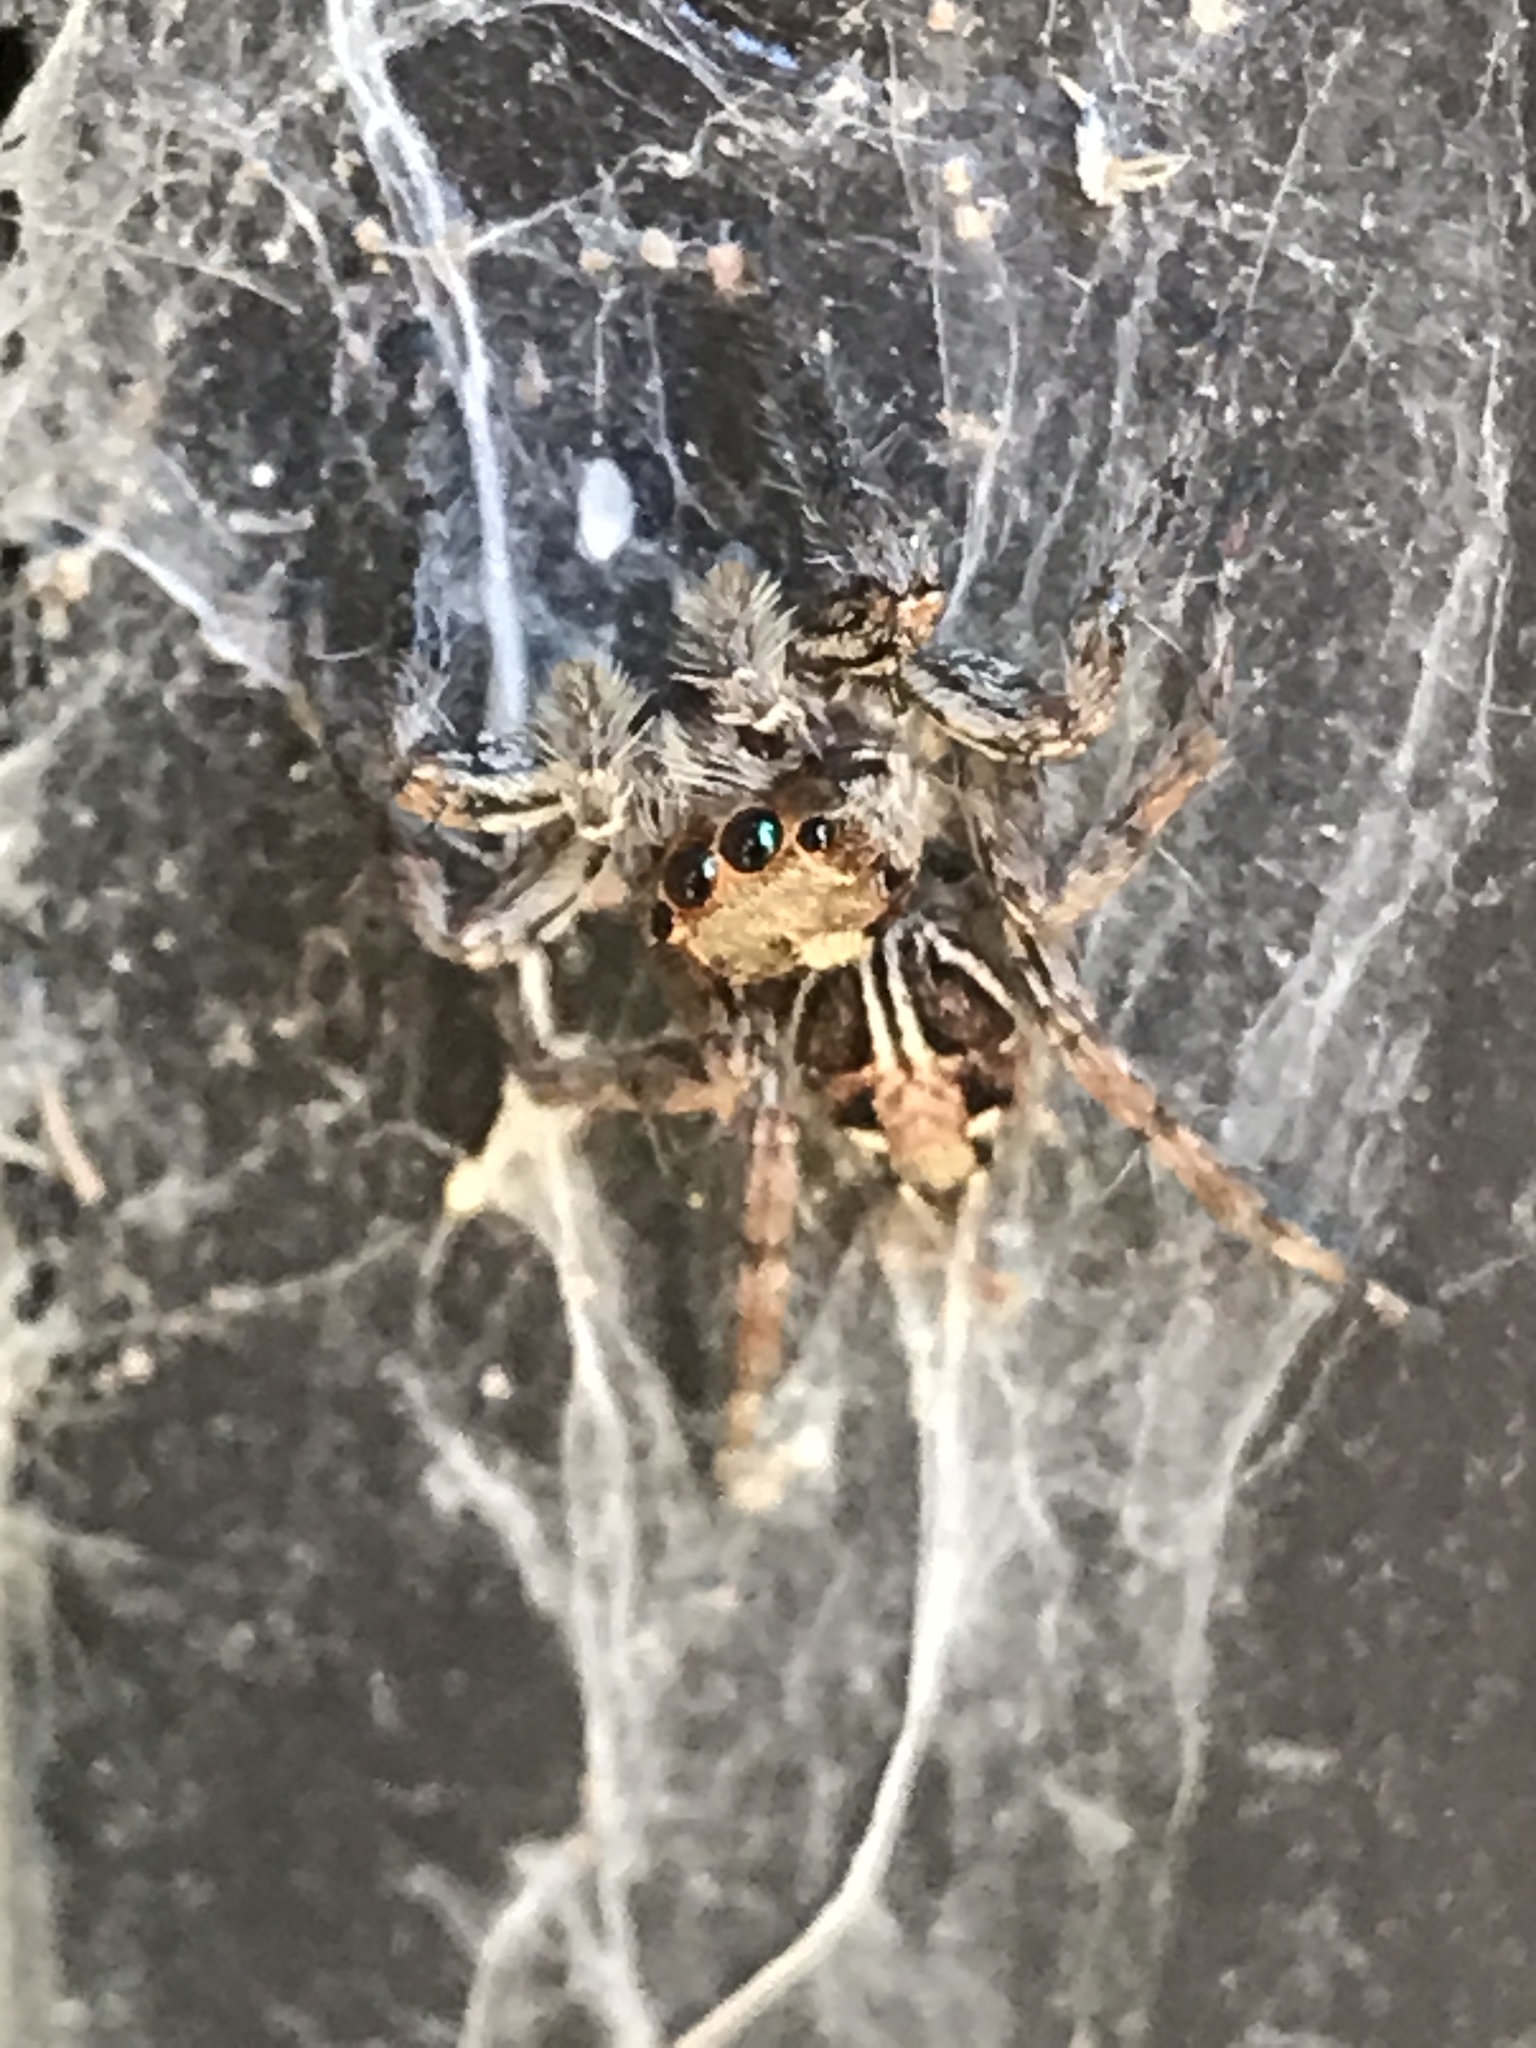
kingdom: Animalia
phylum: Arthropoda
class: Arachnida
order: Araneae
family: Salticidae
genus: Plexippus
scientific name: Plexippus paykulli
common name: Pantropical jumper
